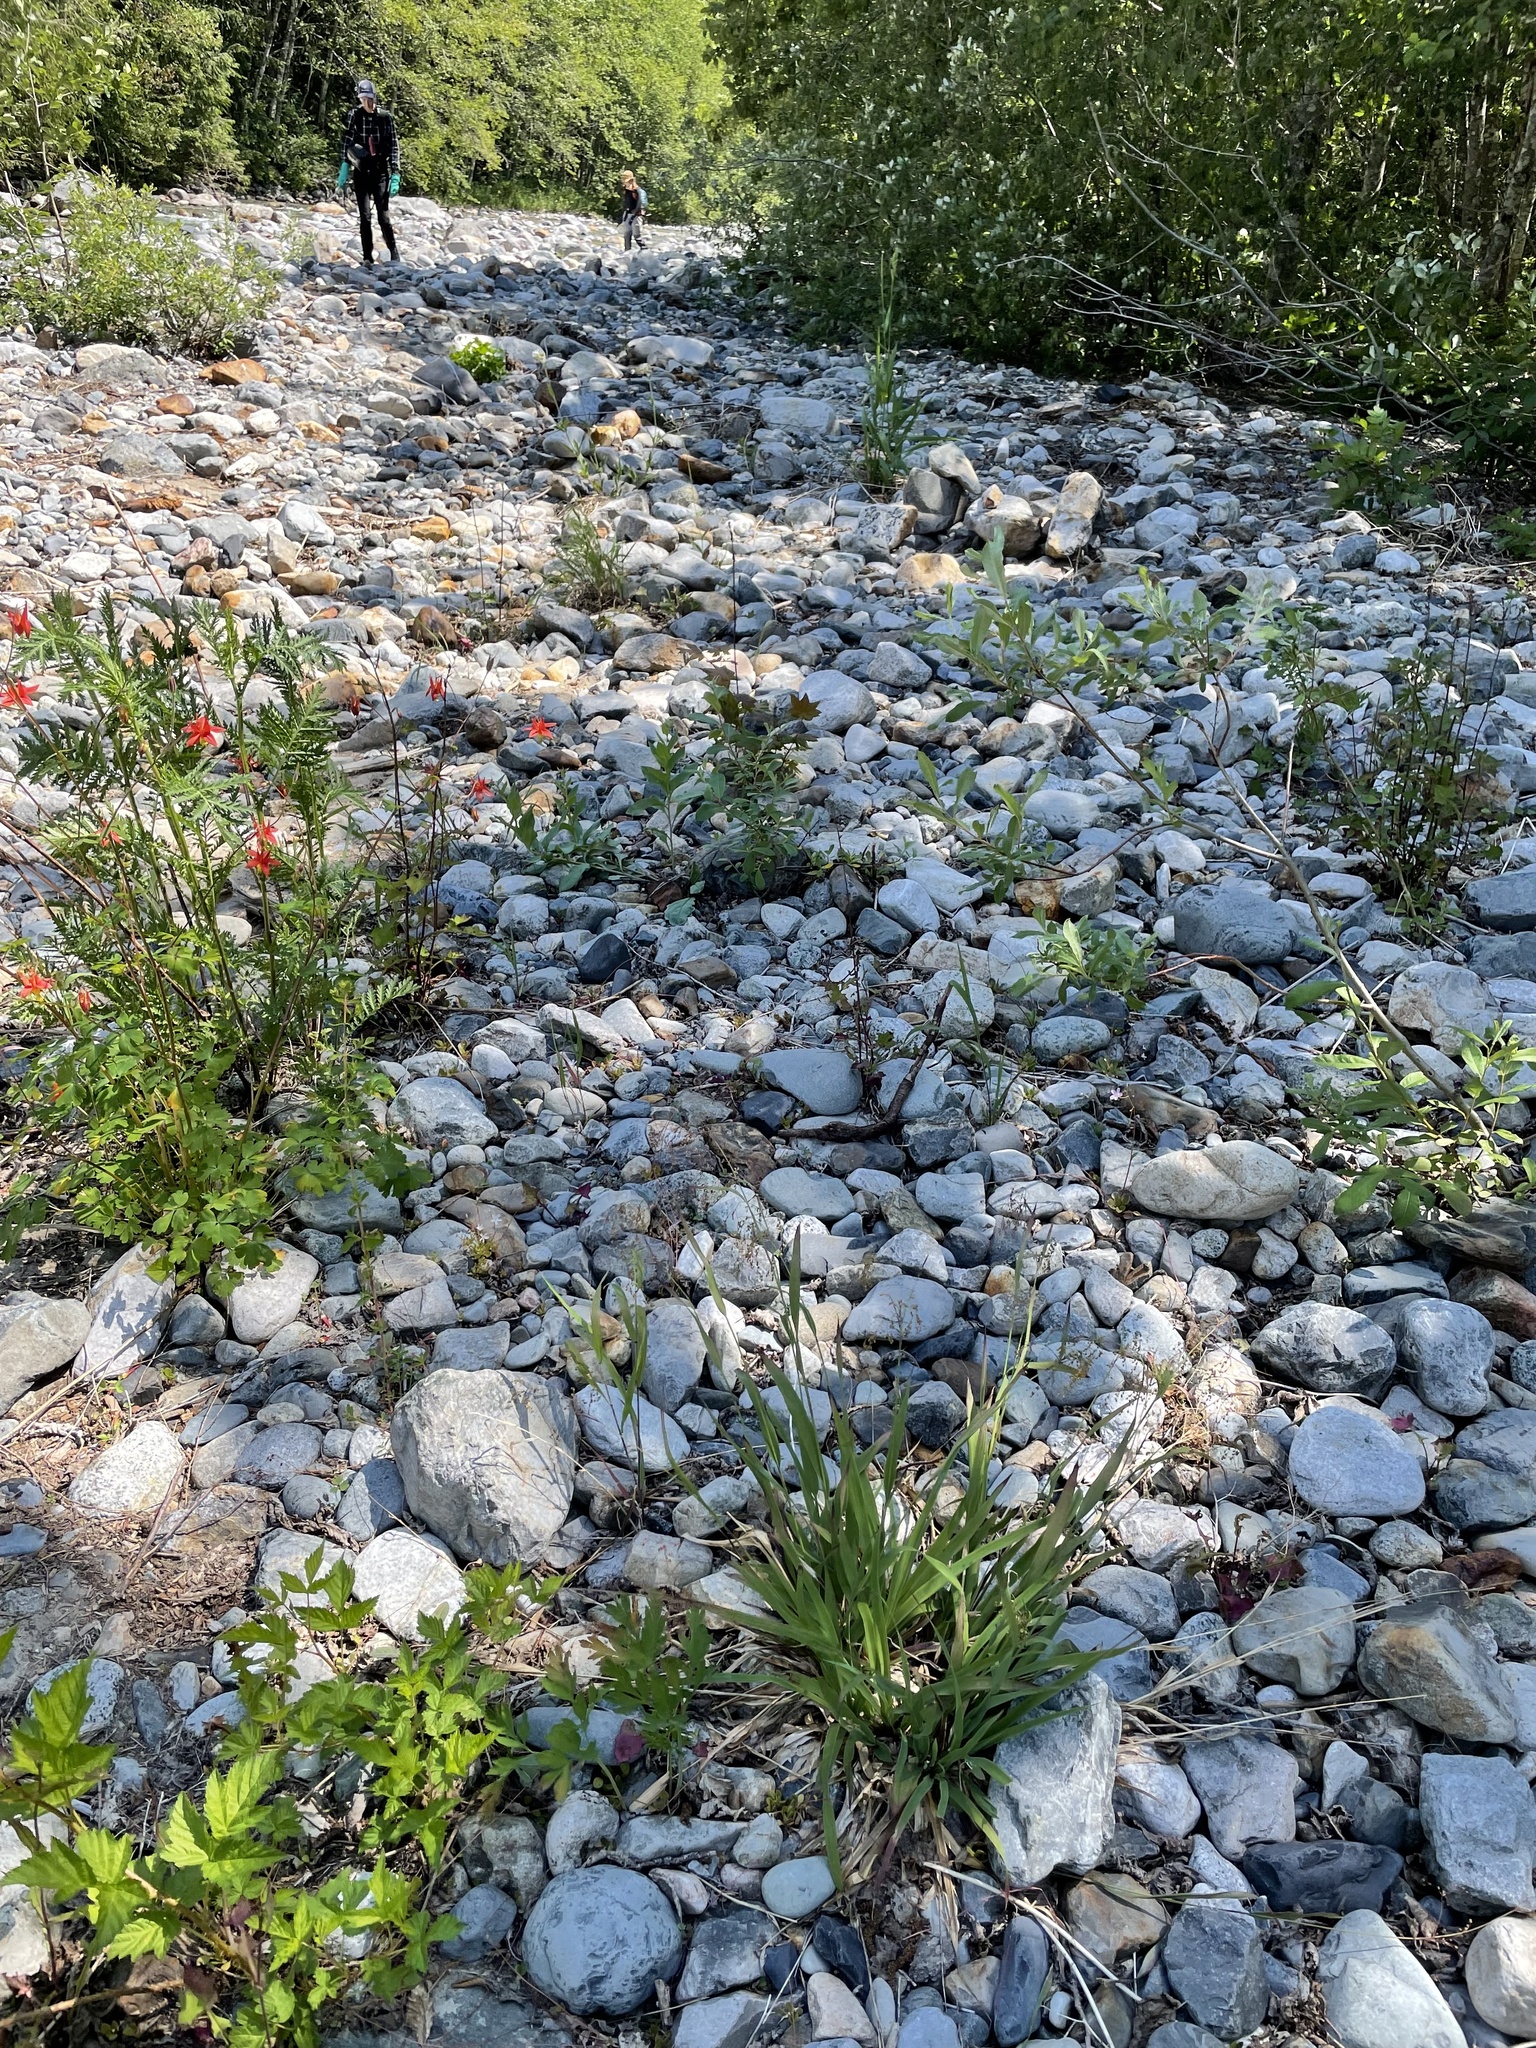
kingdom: Plantae
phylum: Tracheophyta
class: Liliopsida
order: Poales
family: Juncaceae
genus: Luzula
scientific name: Luzula parviflora
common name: Millet woodrush
